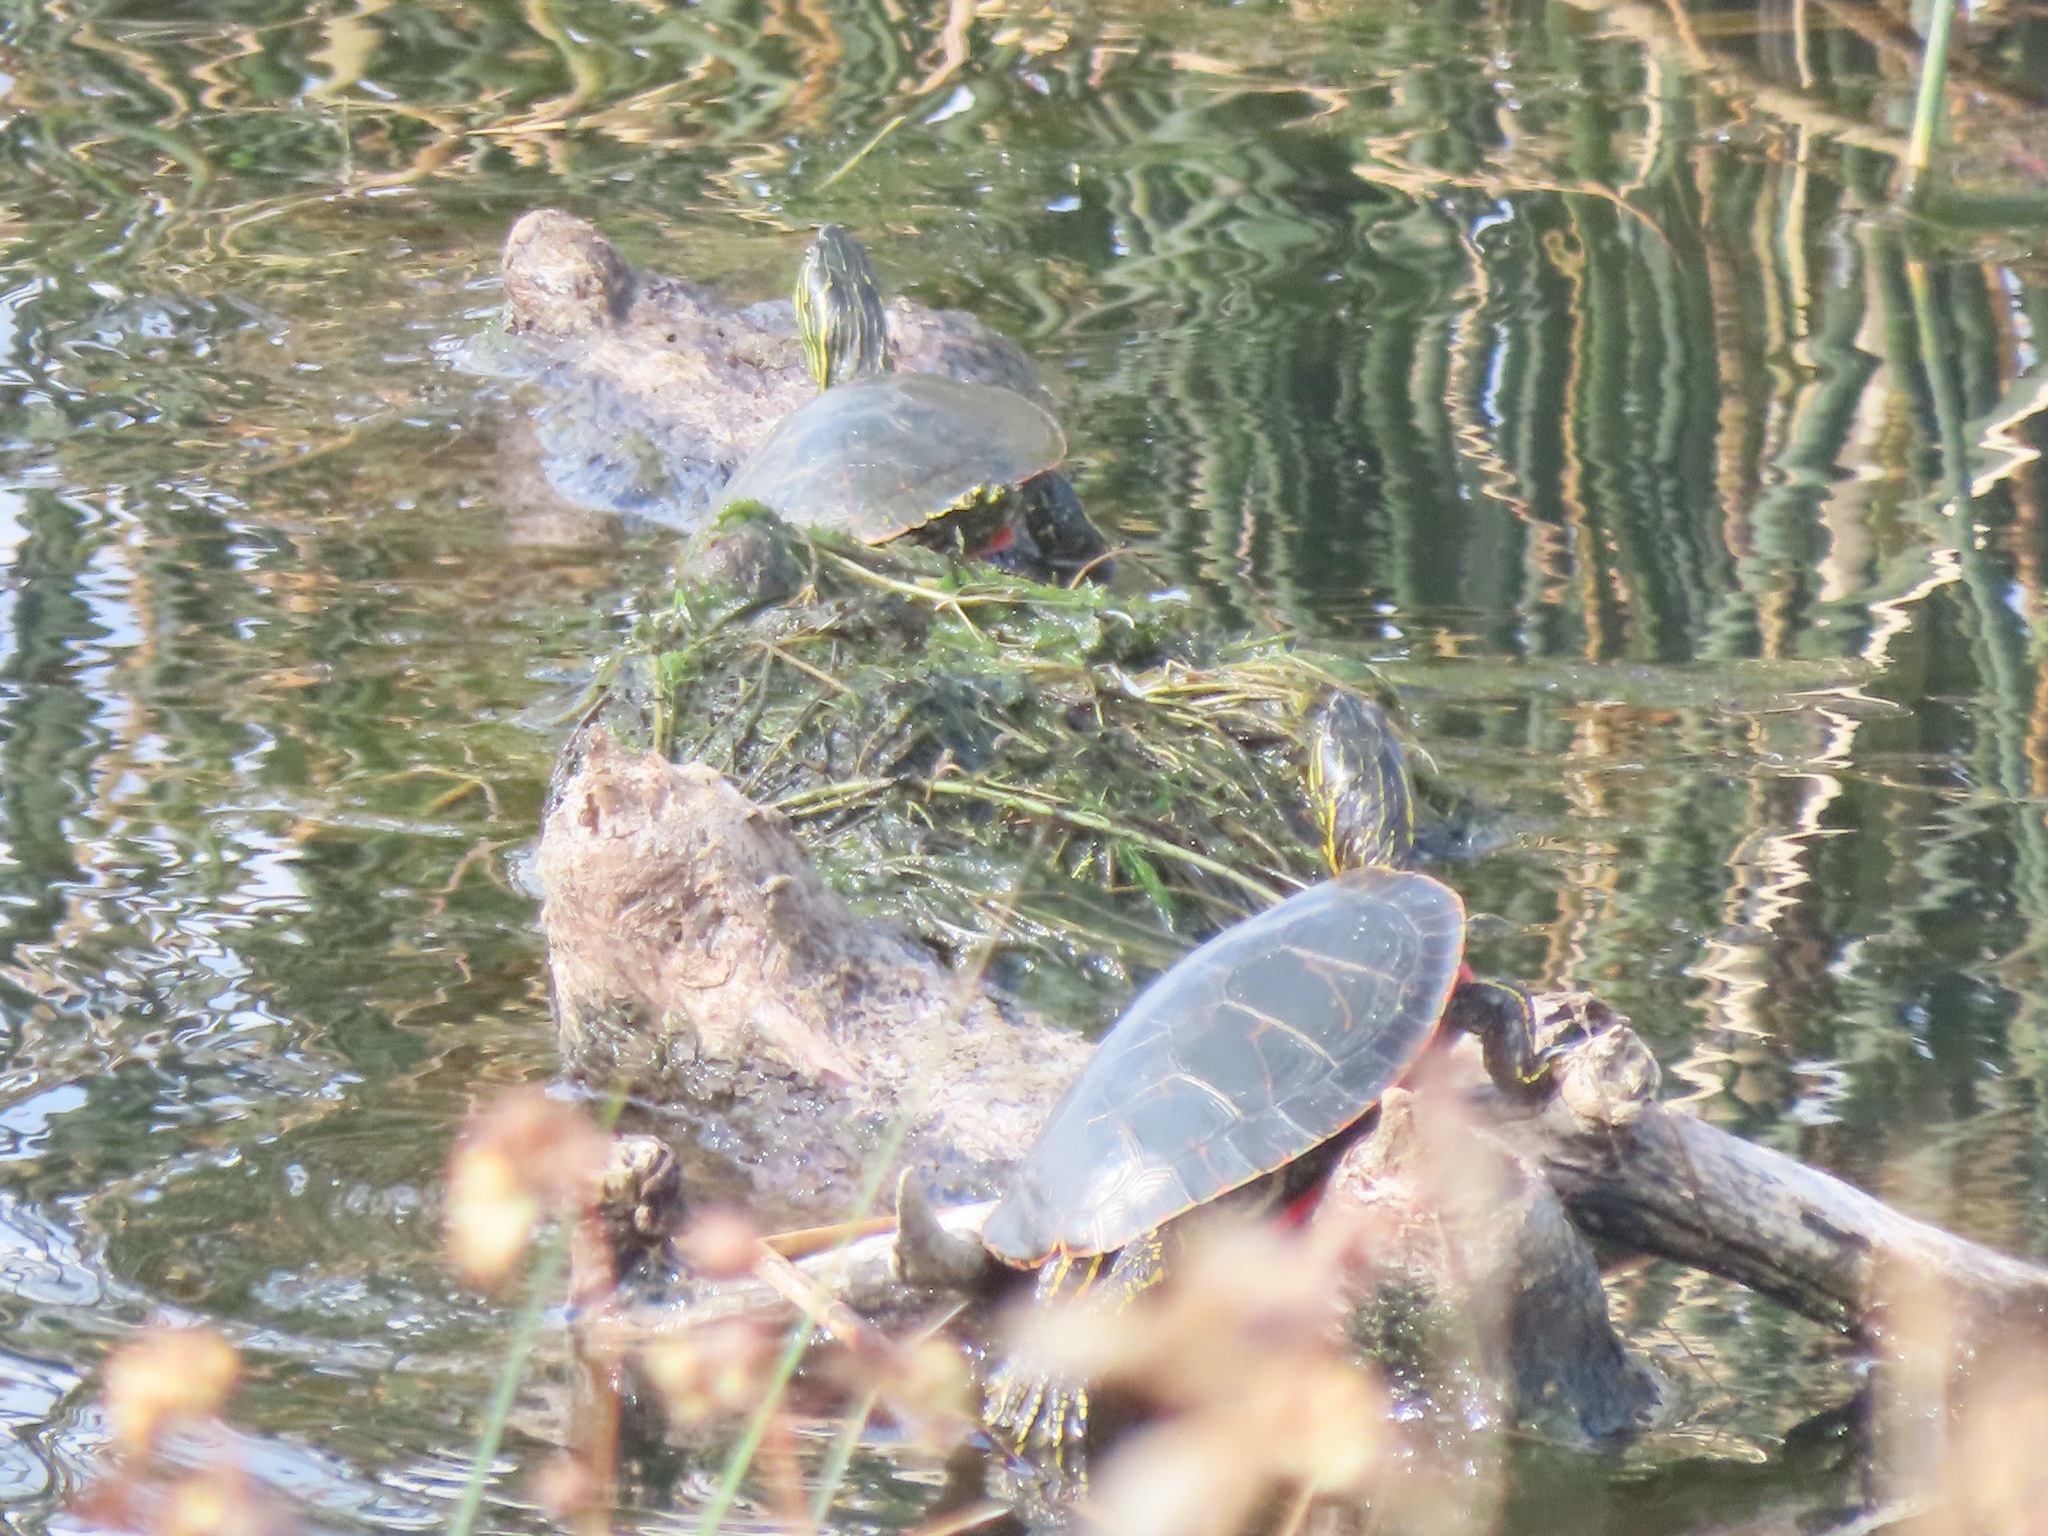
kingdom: Animalia
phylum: Chordata
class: Testudines
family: Emydidae
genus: Chrysemys
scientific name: Chrysemys picta
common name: Painted turtle
